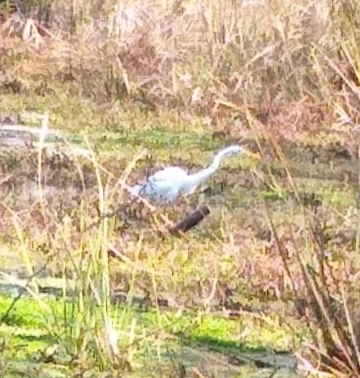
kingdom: Animalia
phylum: Chordata
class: Aves
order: Pelecaniformes
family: Ardeidae
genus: Ardea
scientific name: Ardea alba
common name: Great egret
